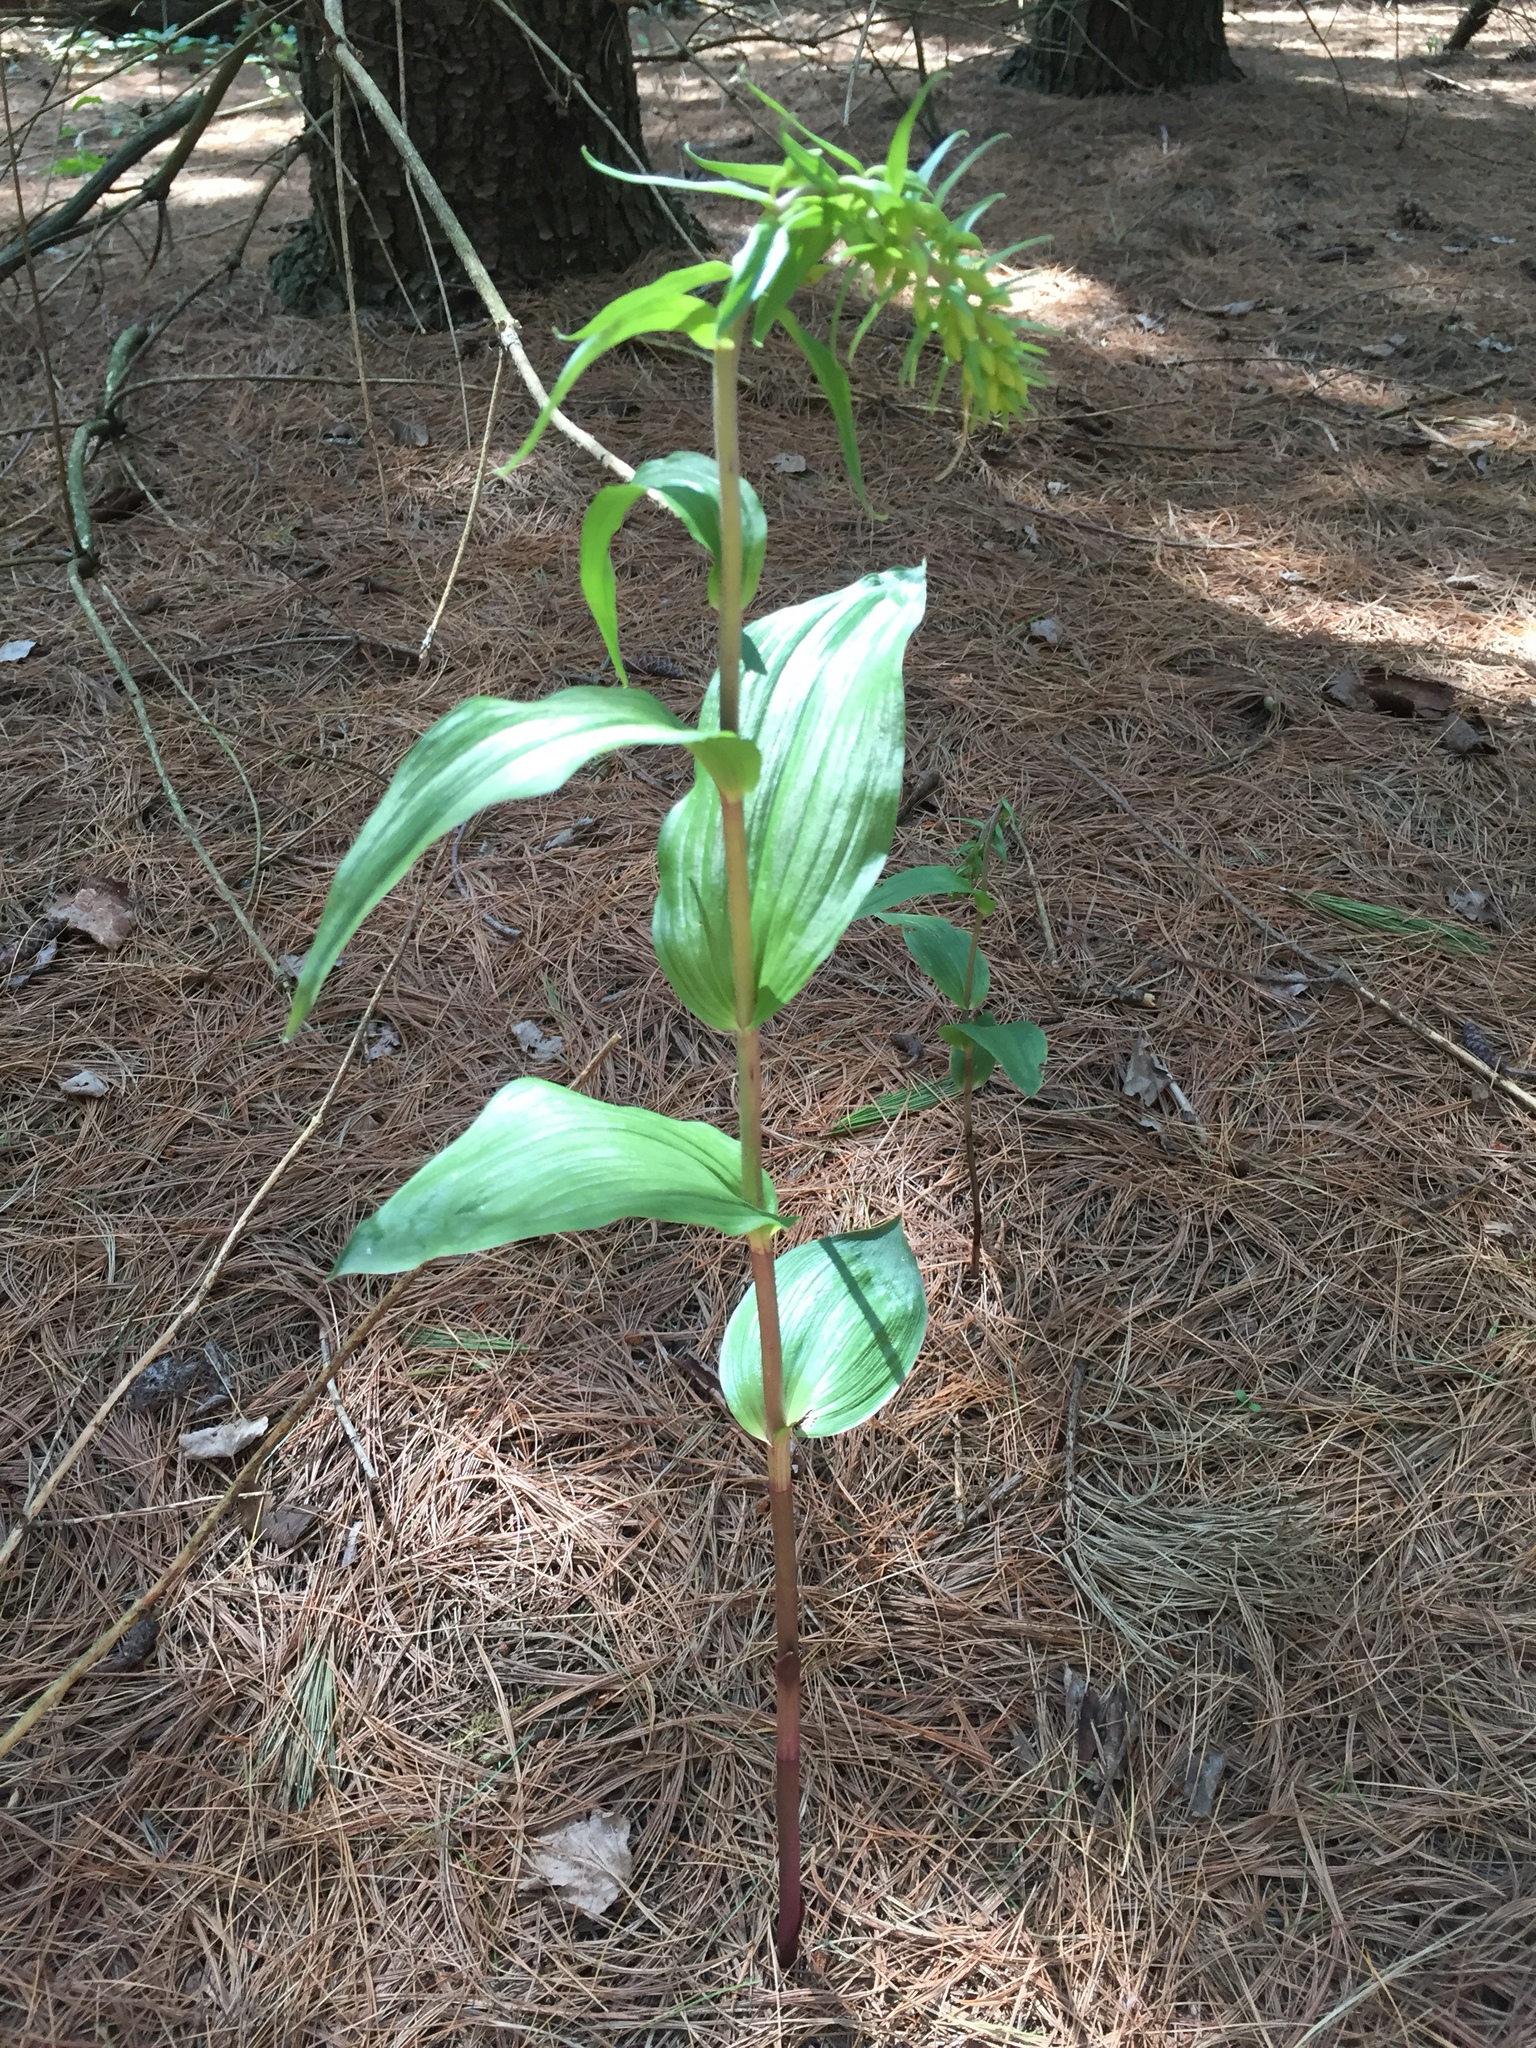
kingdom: Plantae
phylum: Tracheophyta
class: Liliopsida
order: Asparagales
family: Orchidaceae
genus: Epipactis
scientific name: Epipactis helleborine
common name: Broad-leaved helleborine
